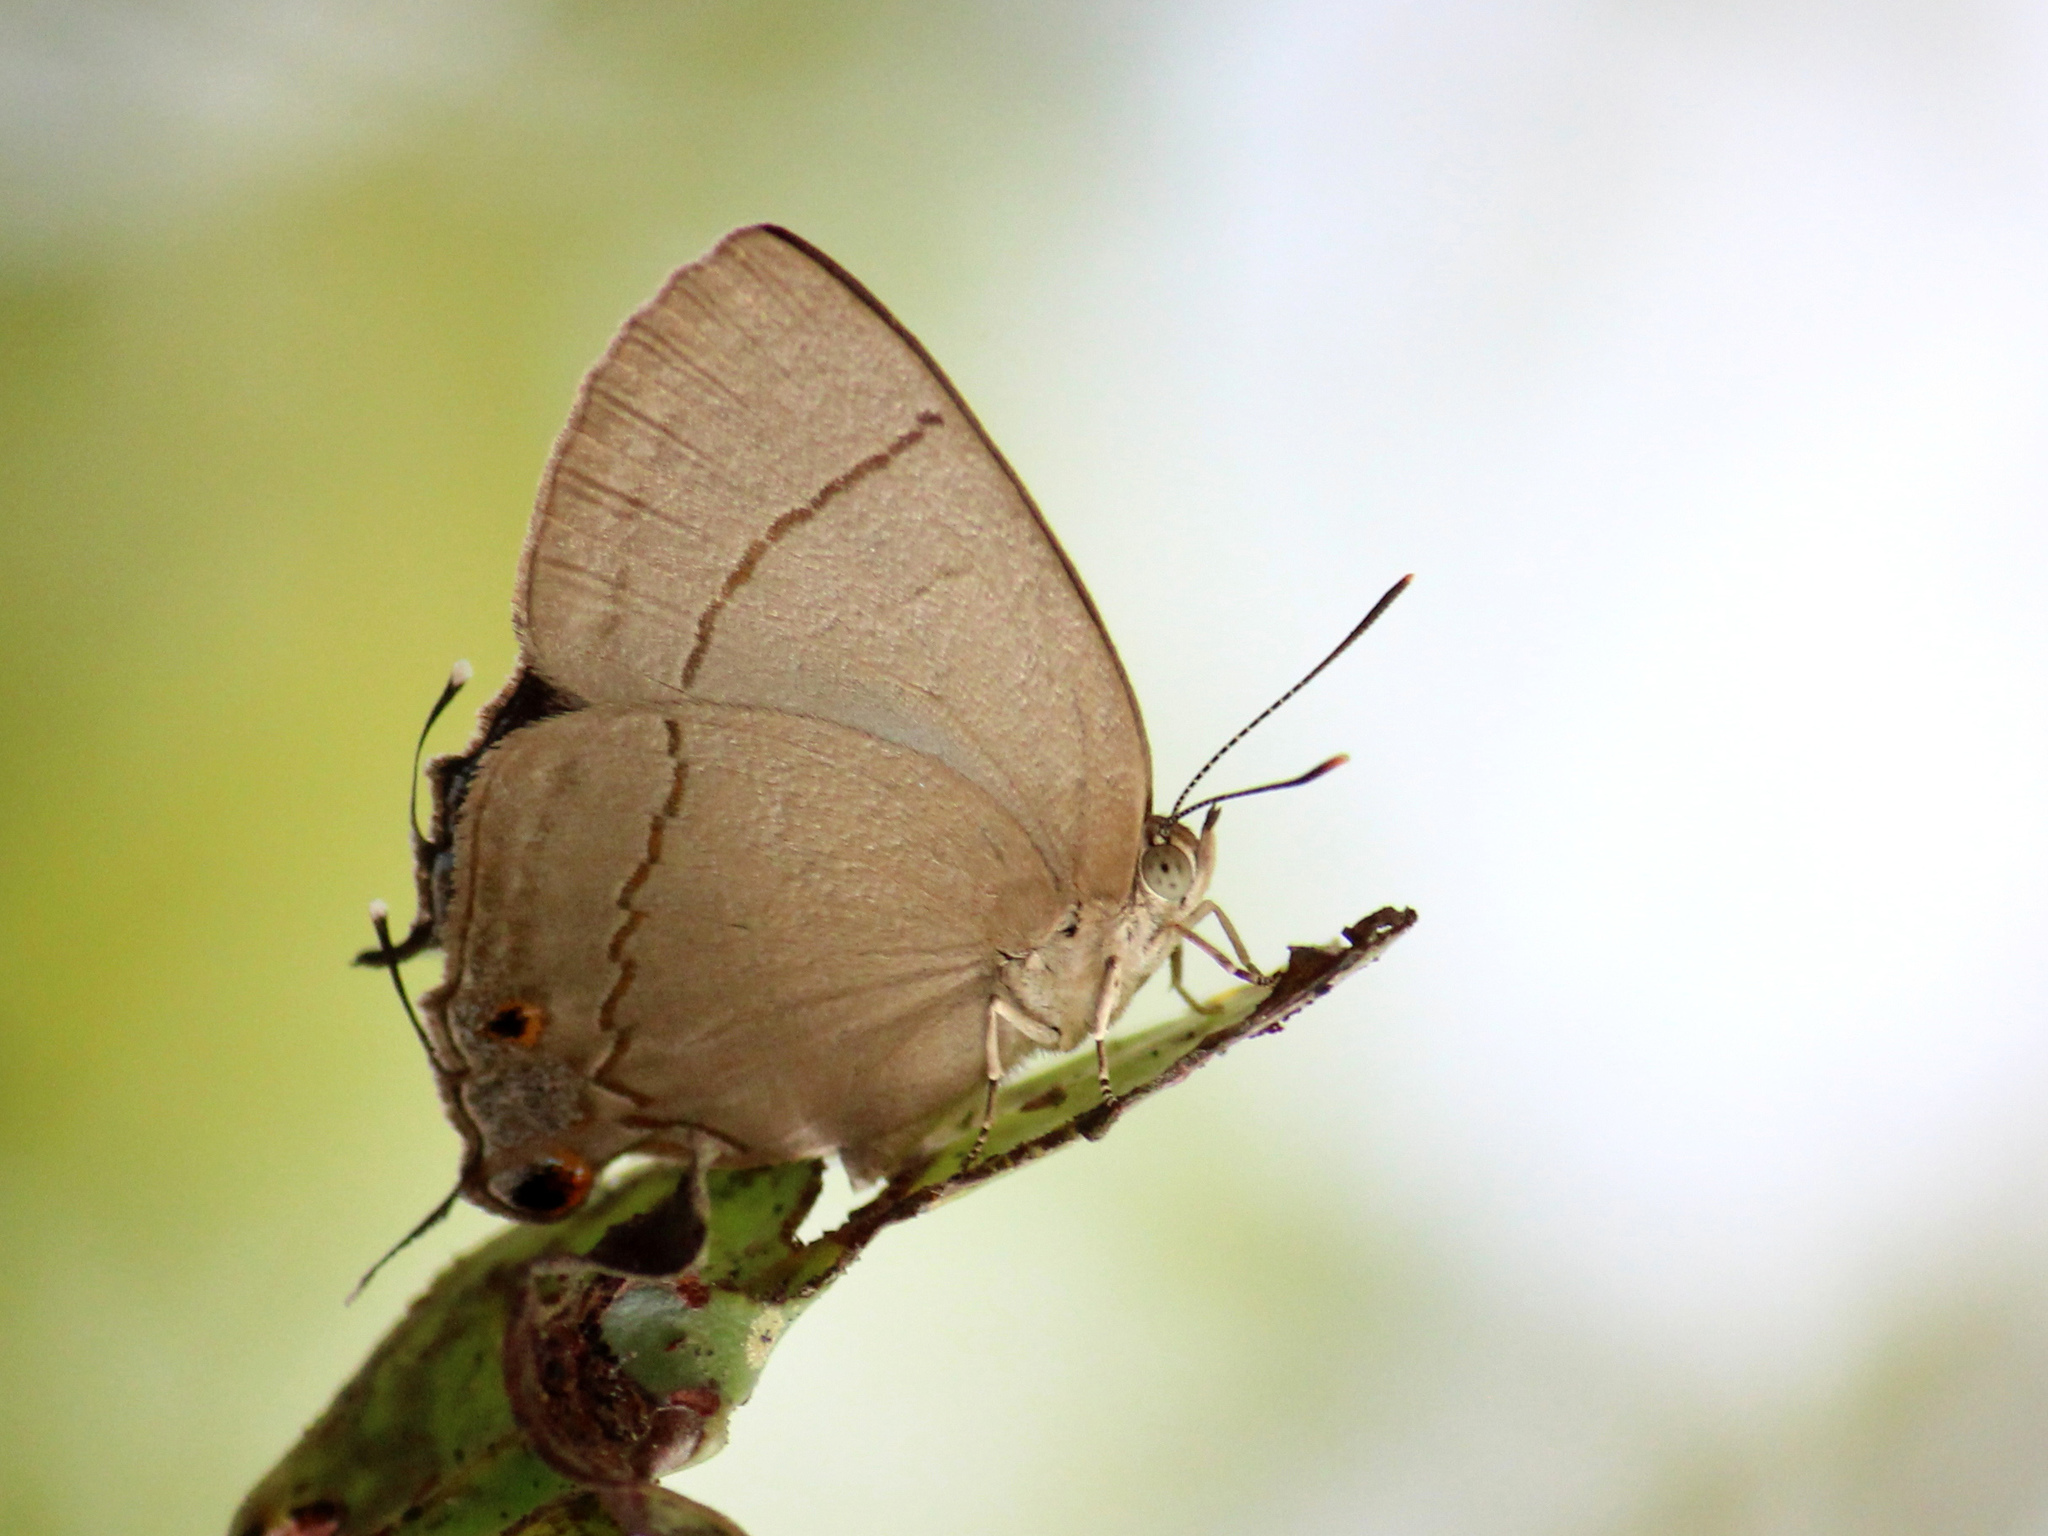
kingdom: Animalia
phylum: Arthropoda
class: Insecta
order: Lepidoptera
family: Lycaenidae
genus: Creon
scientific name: Creon cleobis
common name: Broad-tail royal
